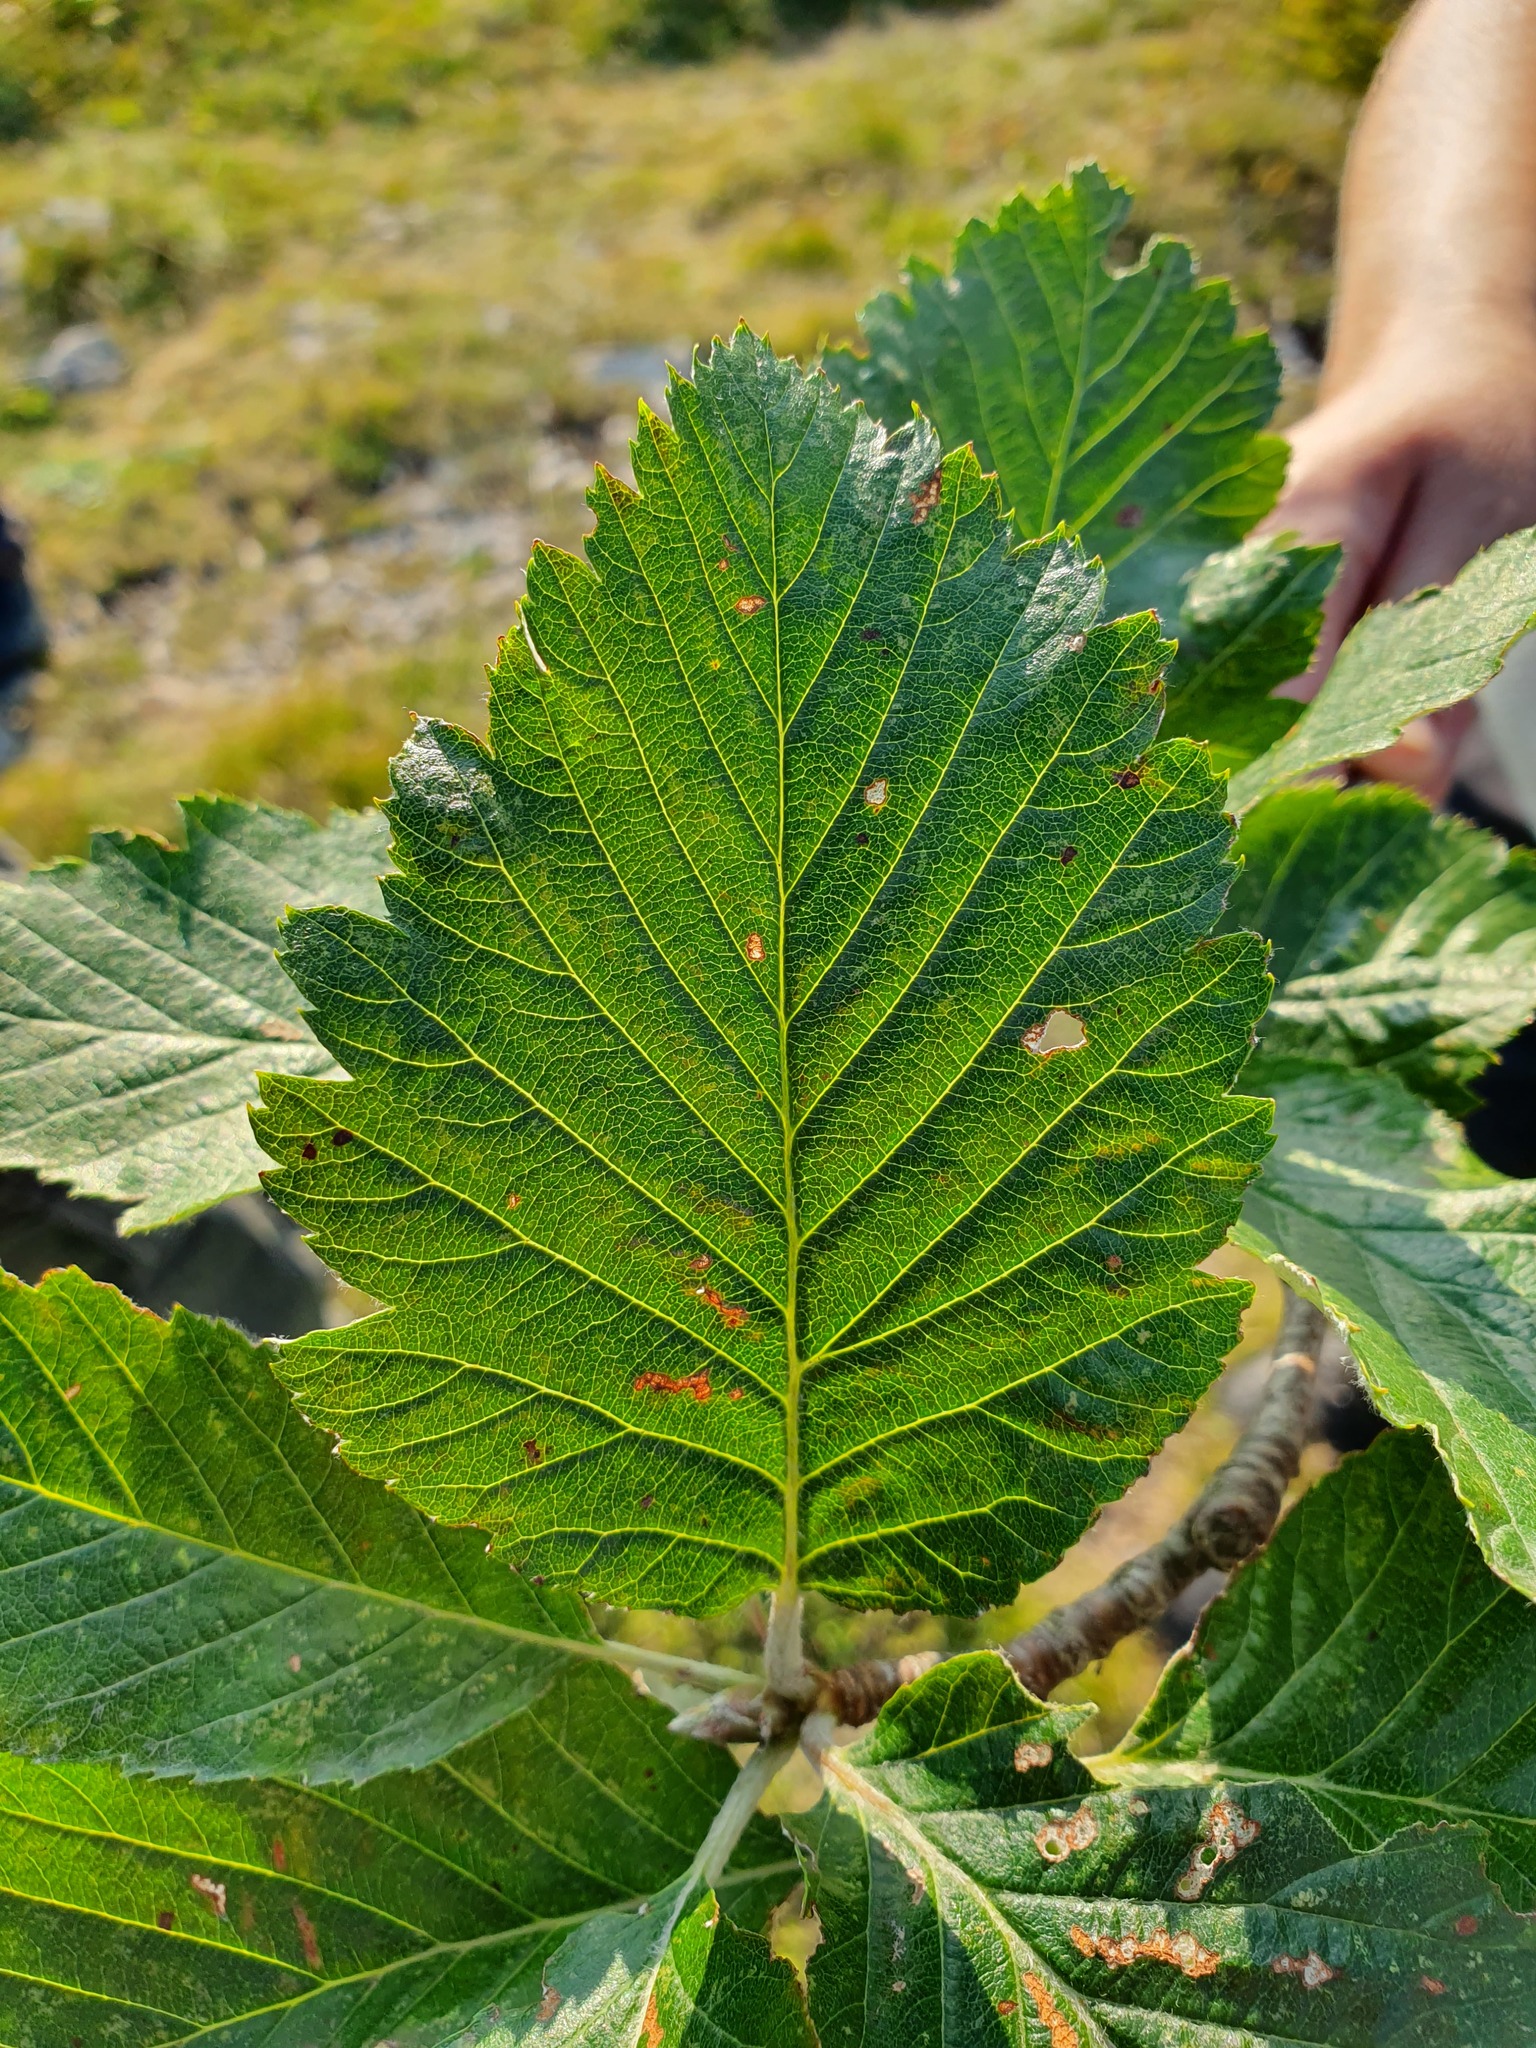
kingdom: Plantae
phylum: Tracheophyta
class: Magnoliopsida
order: Rosales
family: Rosaceae
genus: Hedlundia
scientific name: Hedlundia austriaca
